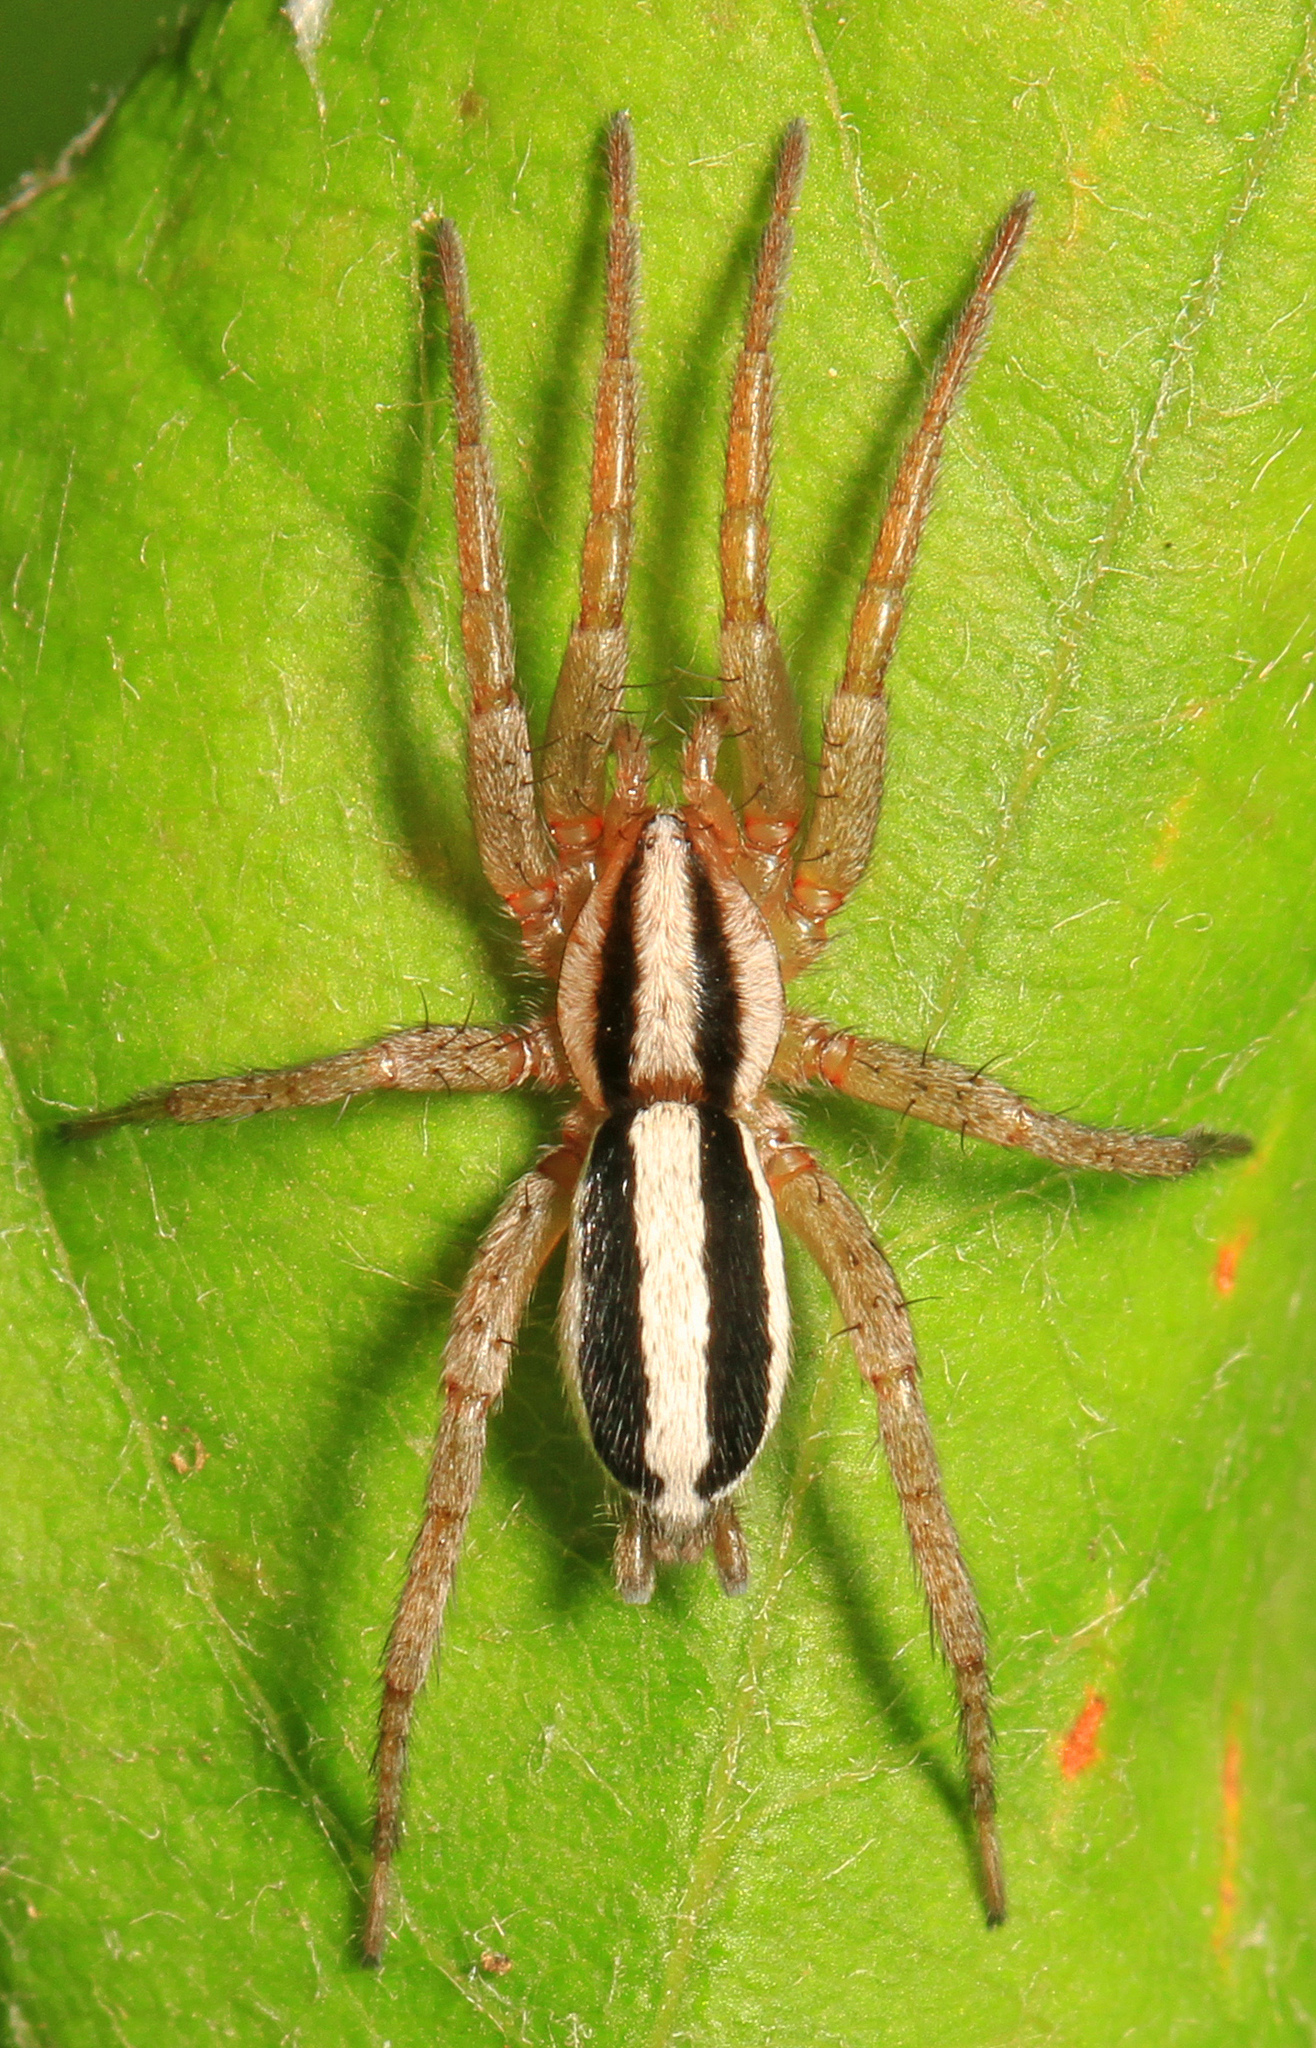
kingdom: Animalia
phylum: Arthropoda
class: Arachnida
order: Araneae
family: Gnaphosidae
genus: Cesonia
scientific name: Cesonia bilineata
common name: Two-lined stealthy ground spider
